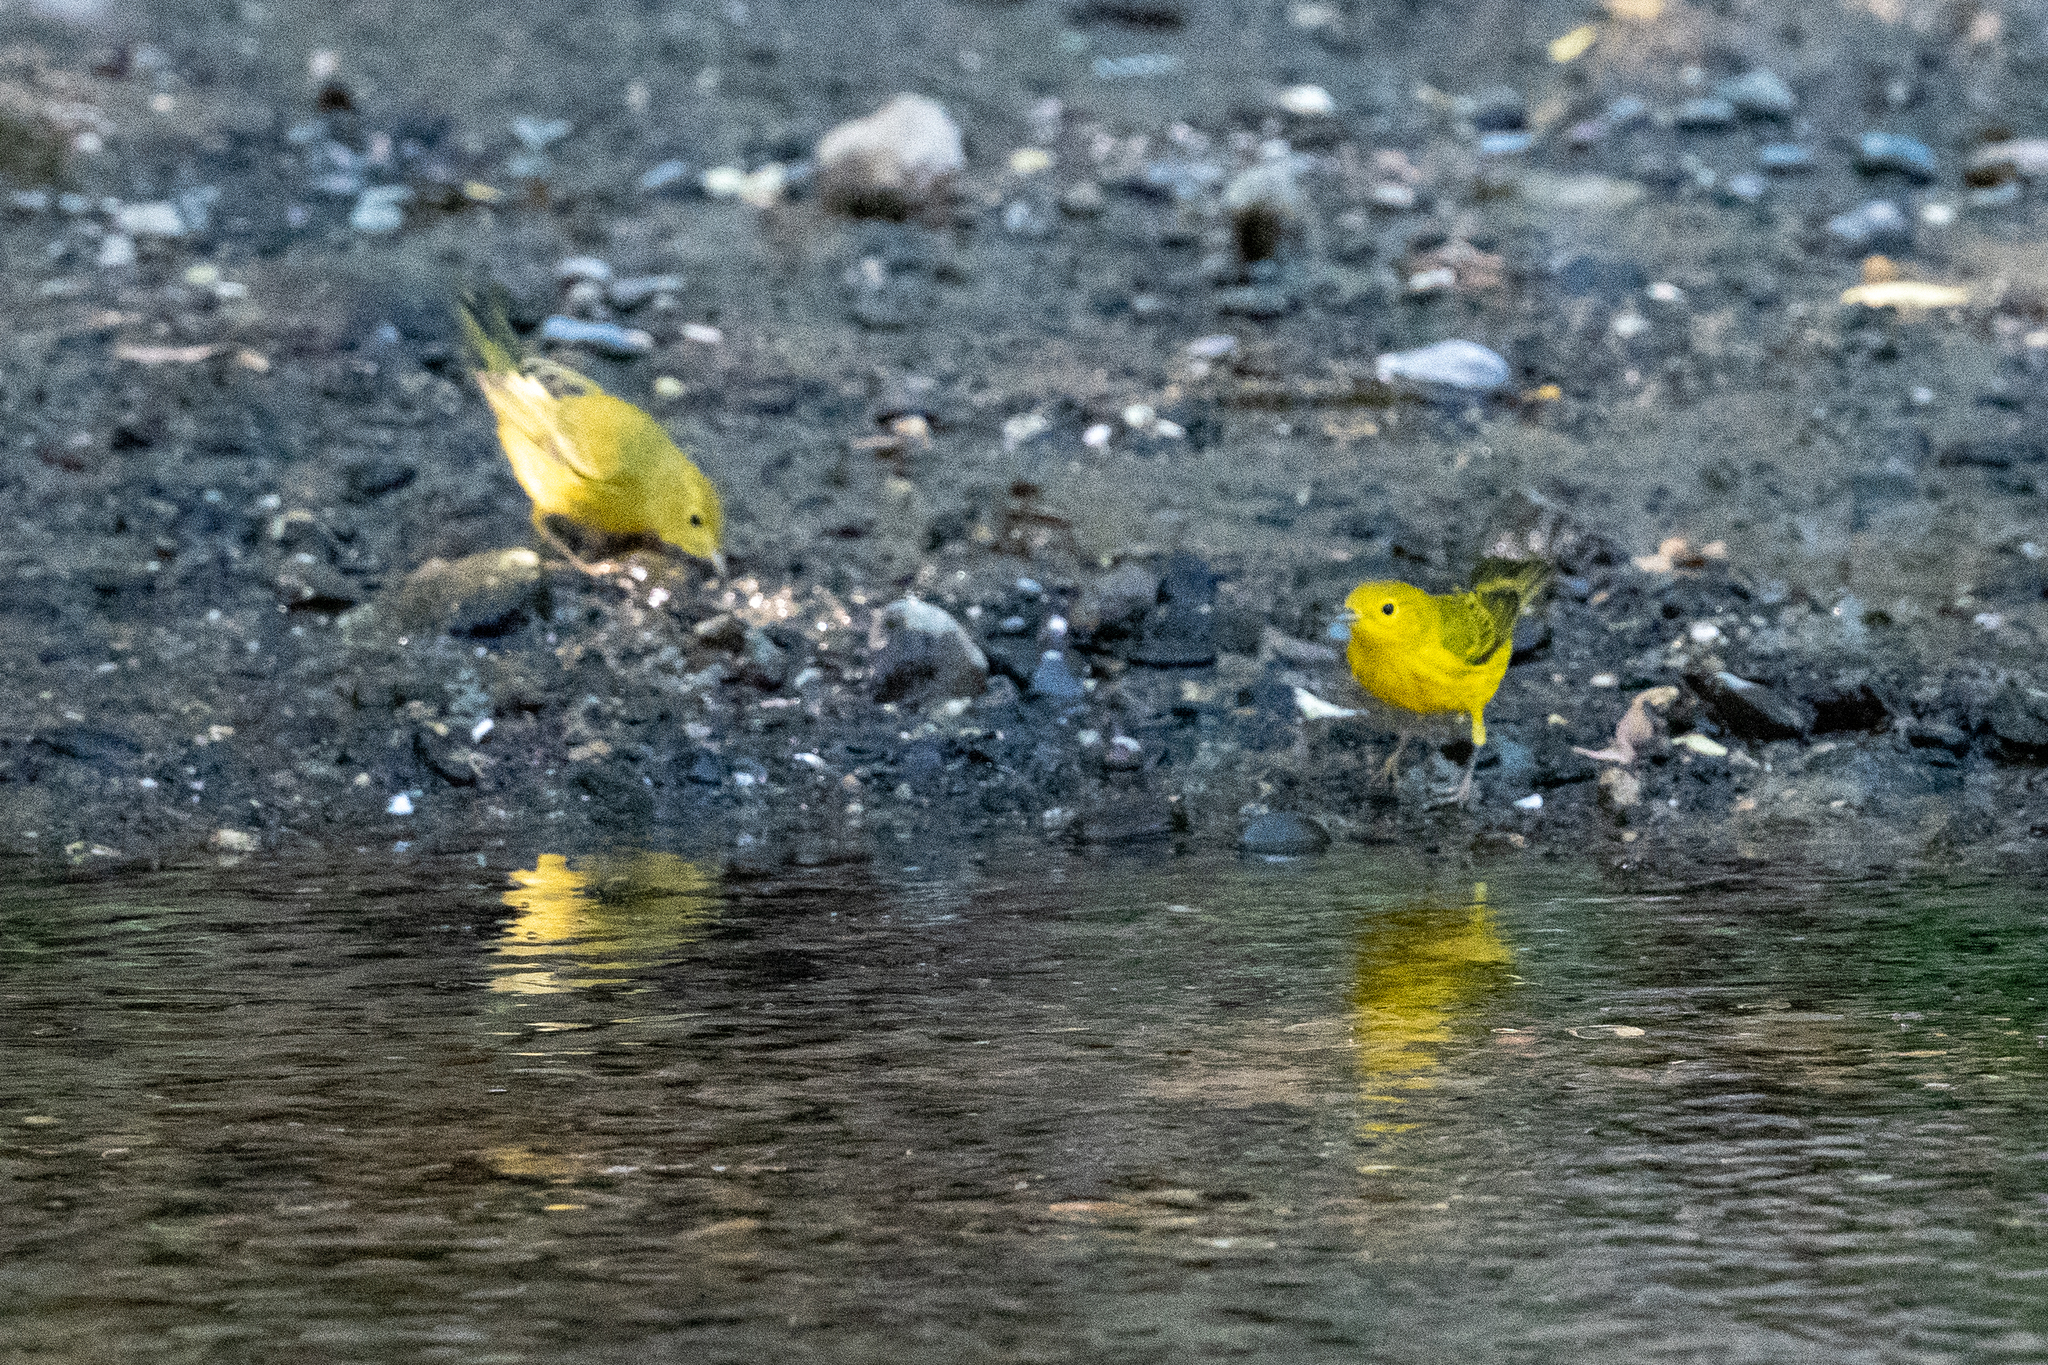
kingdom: Animalia
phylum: Chordata
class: Aves
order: Passeriformes
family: Parulidae
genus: Setophaga
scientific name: Setophaga petechia
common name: Yellow warbler
